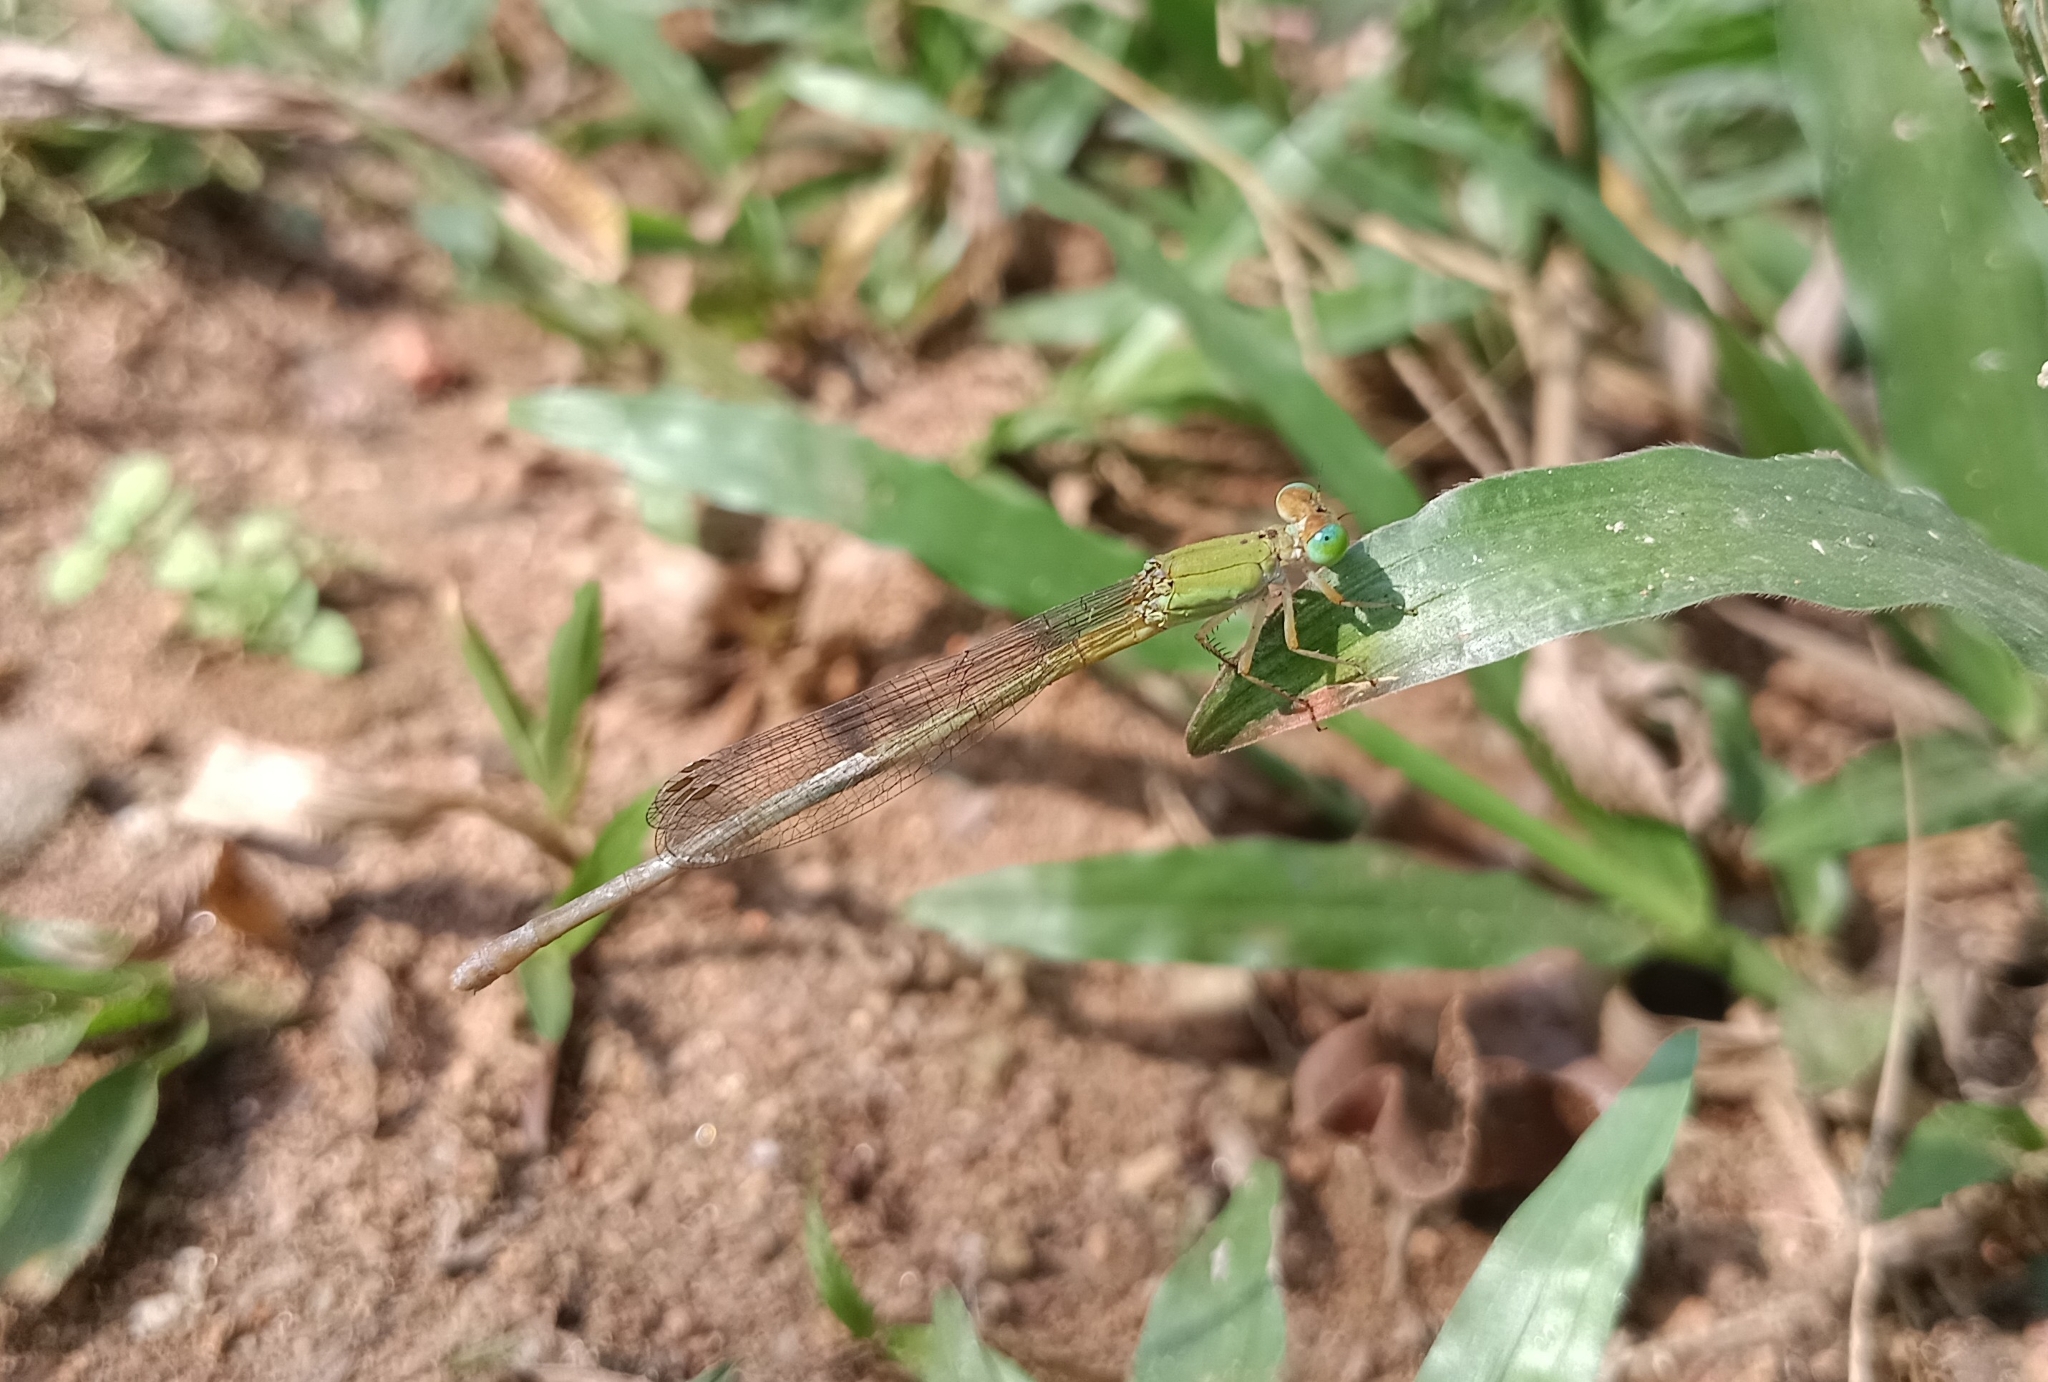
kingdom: Animalia
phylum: Arthropoda
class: Insecta
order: Odonata
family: Coenagrionidae
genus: Ceriagrion
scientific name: Ceriagrion coromandelianum
